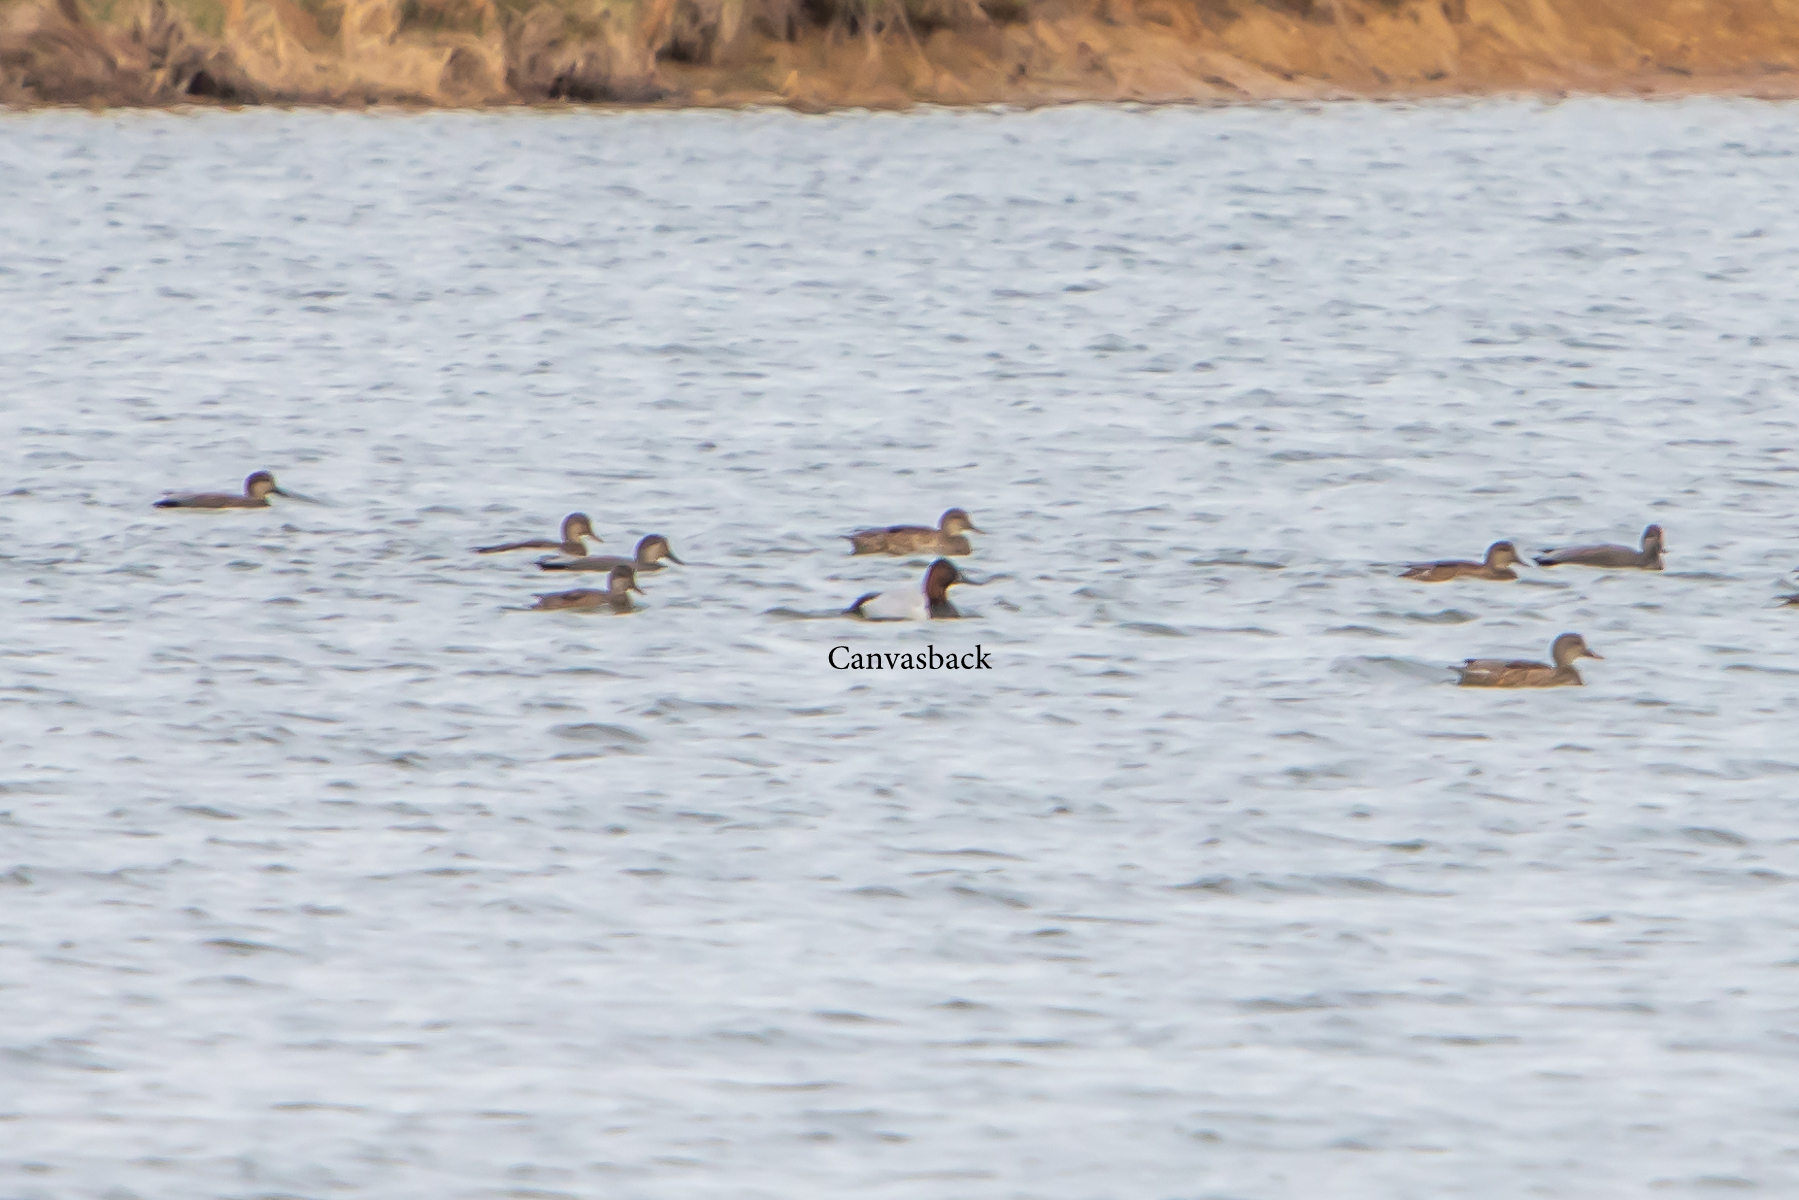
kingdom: Animalia
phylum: Chordata
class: Aves
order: Anseriformes
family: Anatidae
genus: Aythya
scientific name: Aythya valisineria
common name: Canvasback
